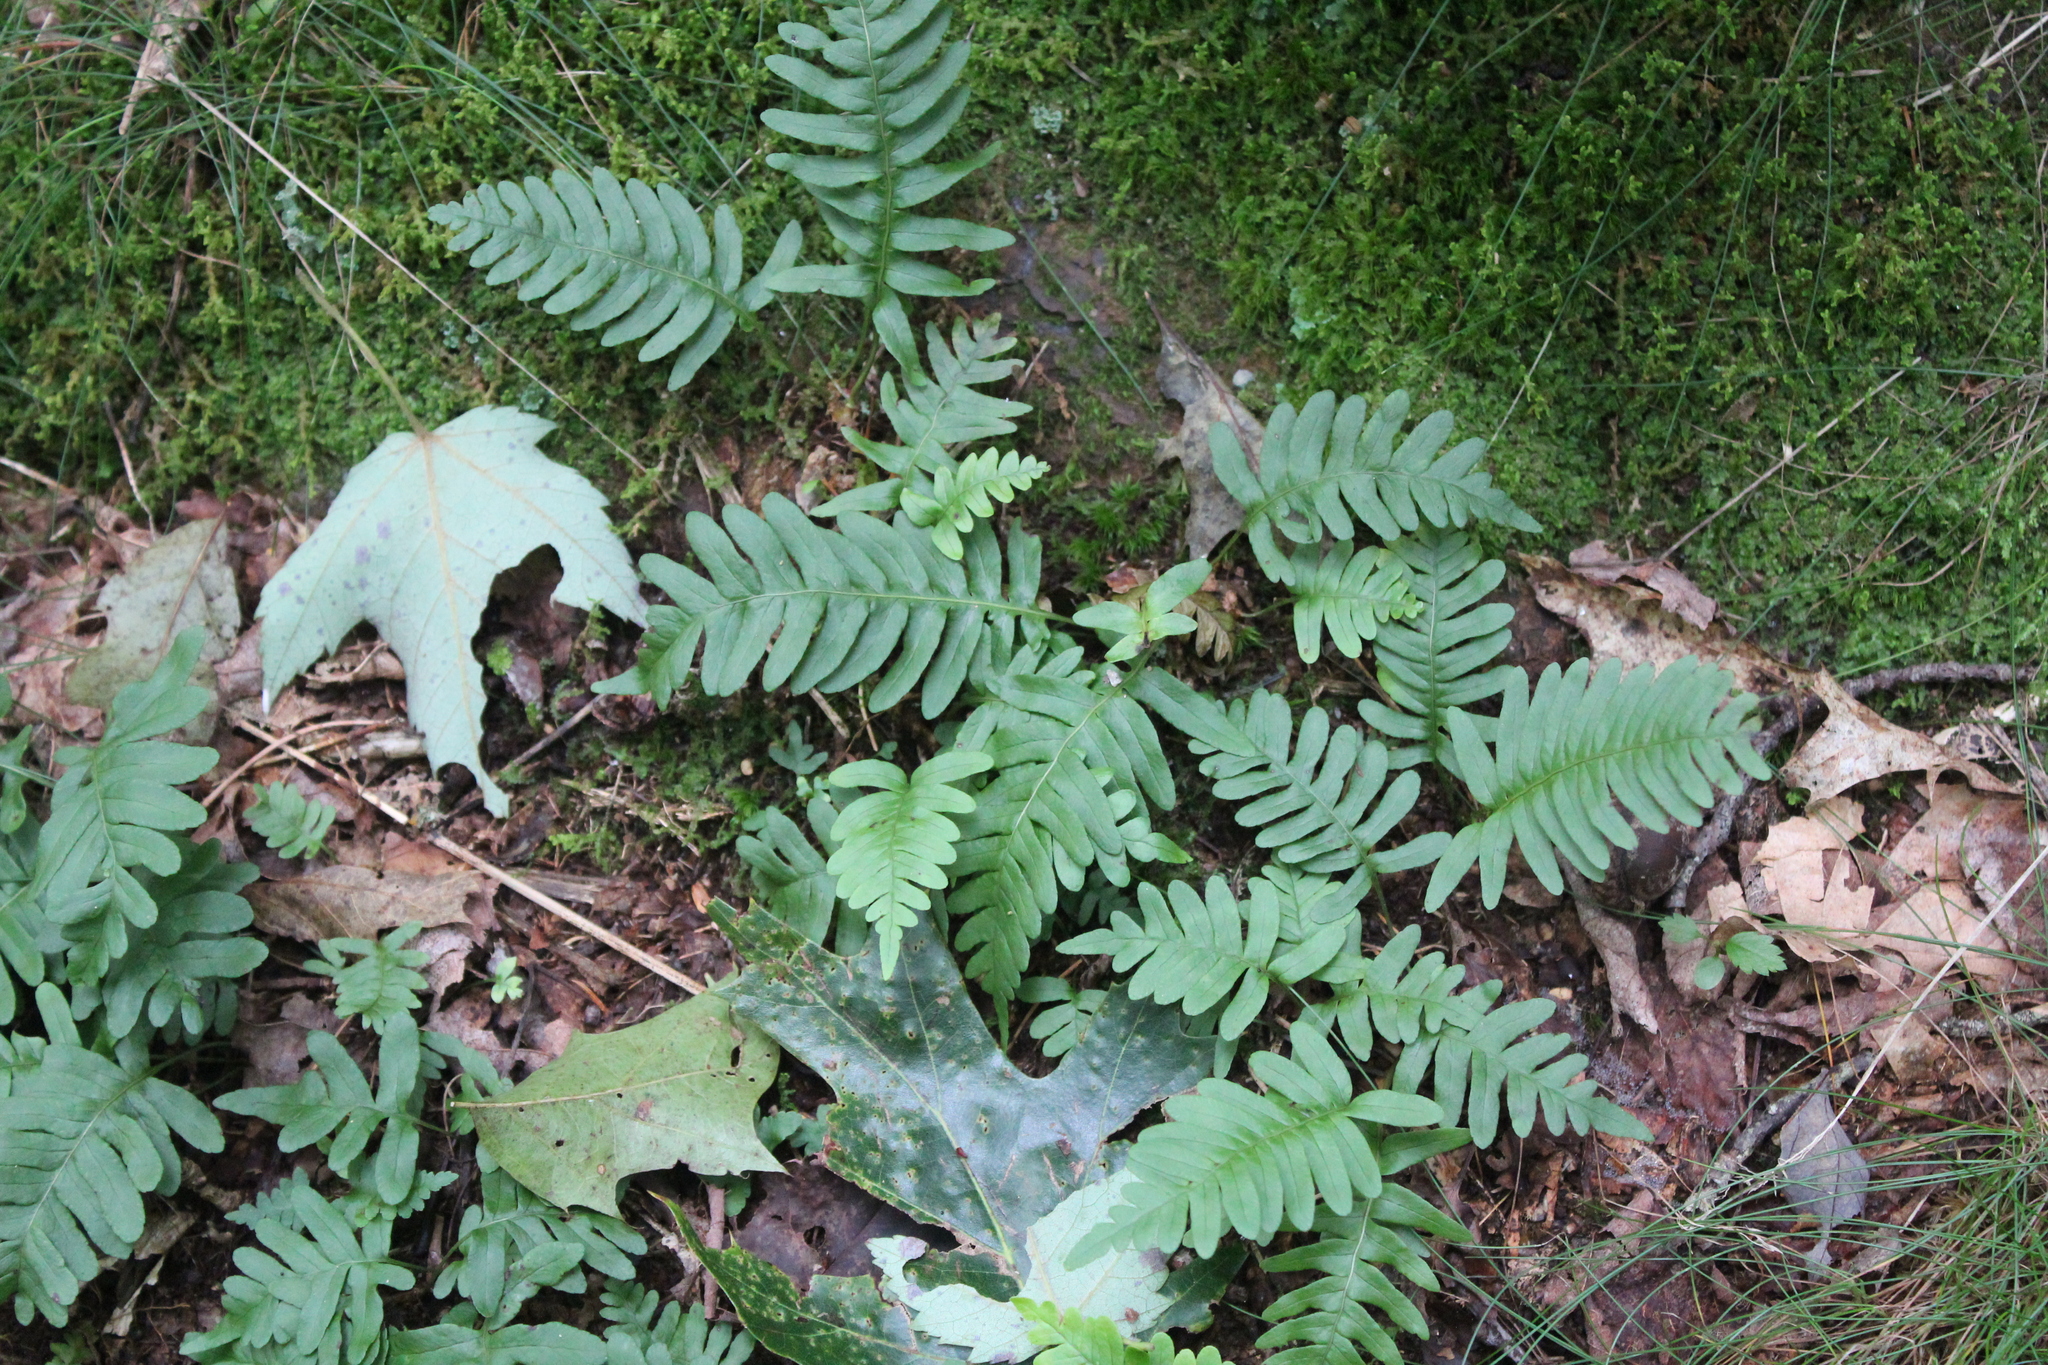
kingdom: Plantae
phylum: Tracheophyta
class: Polypodiopsida
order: Polypodiales
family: Polypodiaceae
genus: Polypodium
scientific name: Polypodium virginianum
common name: American wall fern
